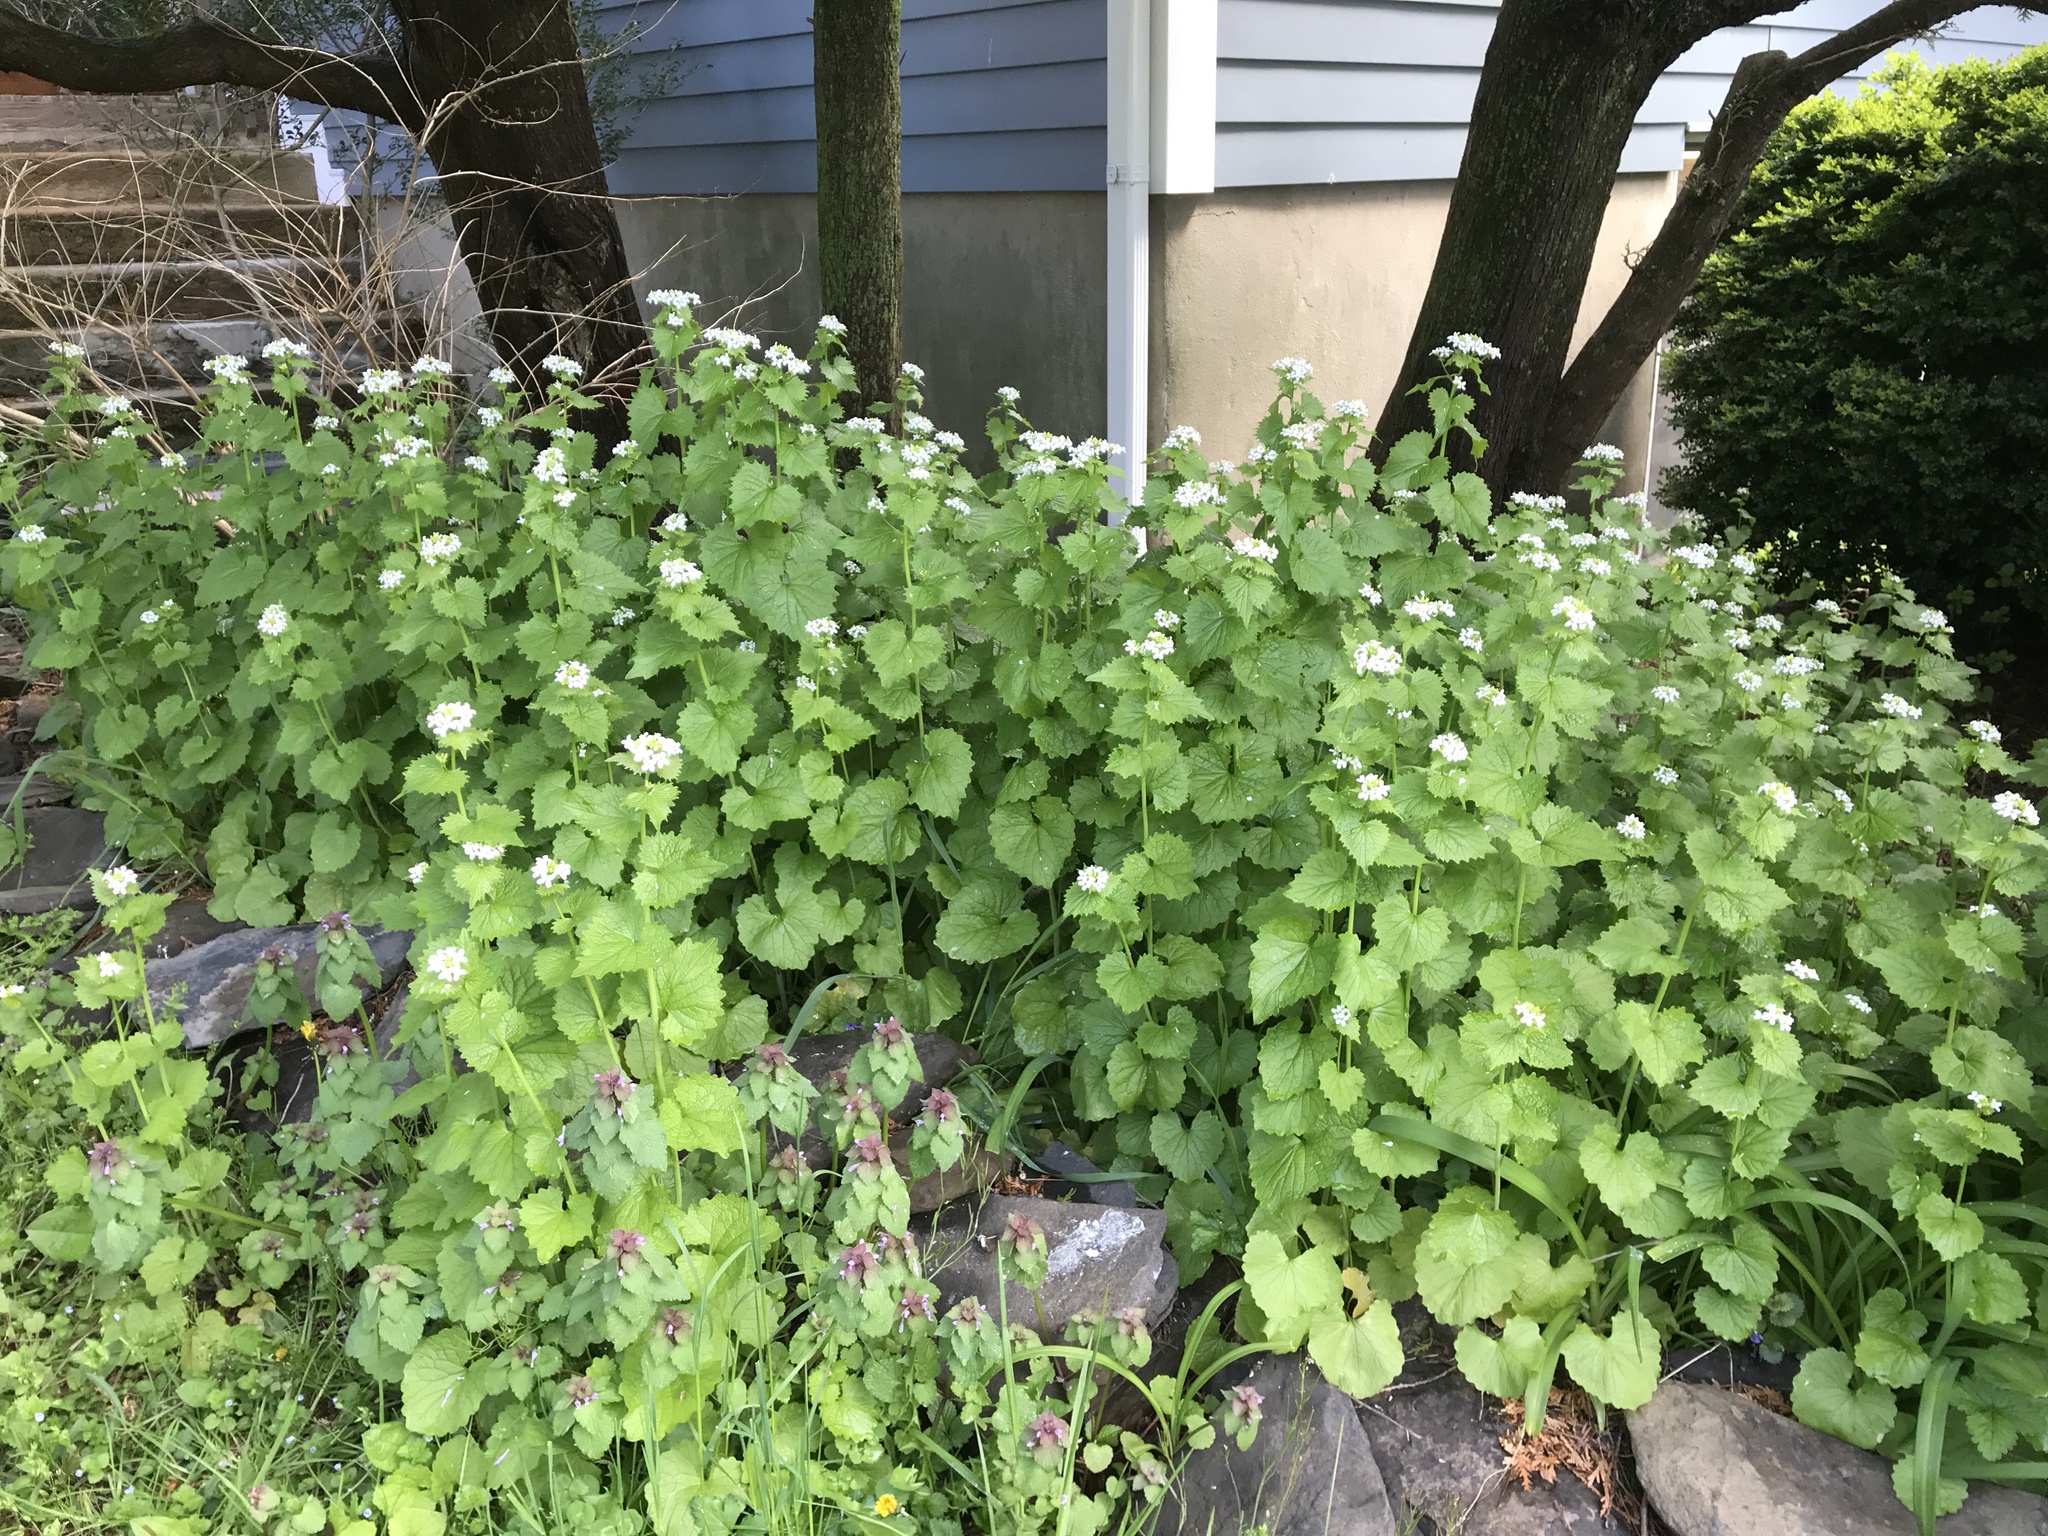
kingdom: Plantae
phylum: Tracheophyta
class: Magnoliopsida
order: Brassicales
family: Brassicaceae
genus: Alliaria
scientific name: Alliaria petiolata
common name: Garlic mustard
